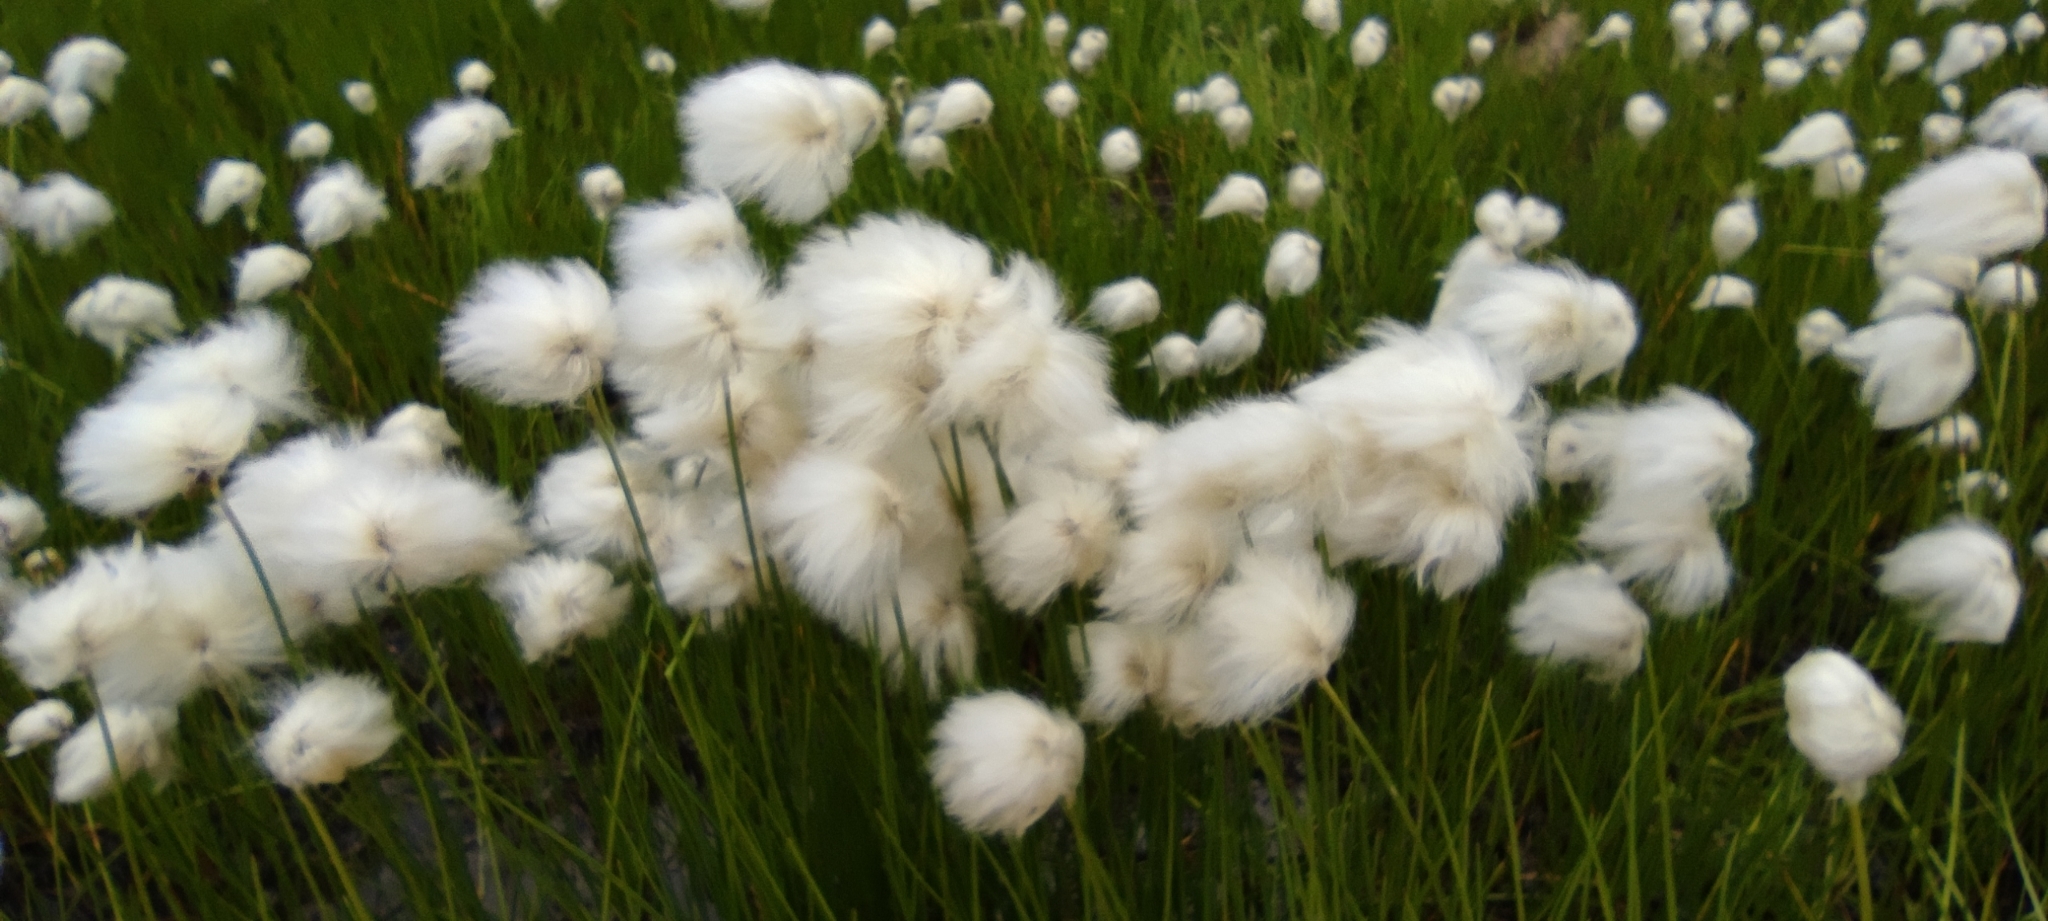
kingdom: Plantae
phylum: Tracheophyta
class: Liliopsida
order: Poales
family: Cyperaceae
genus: Eriophorum
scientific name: Eriophorum scheuchzeri
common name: Scheuchzer's cottongrass
